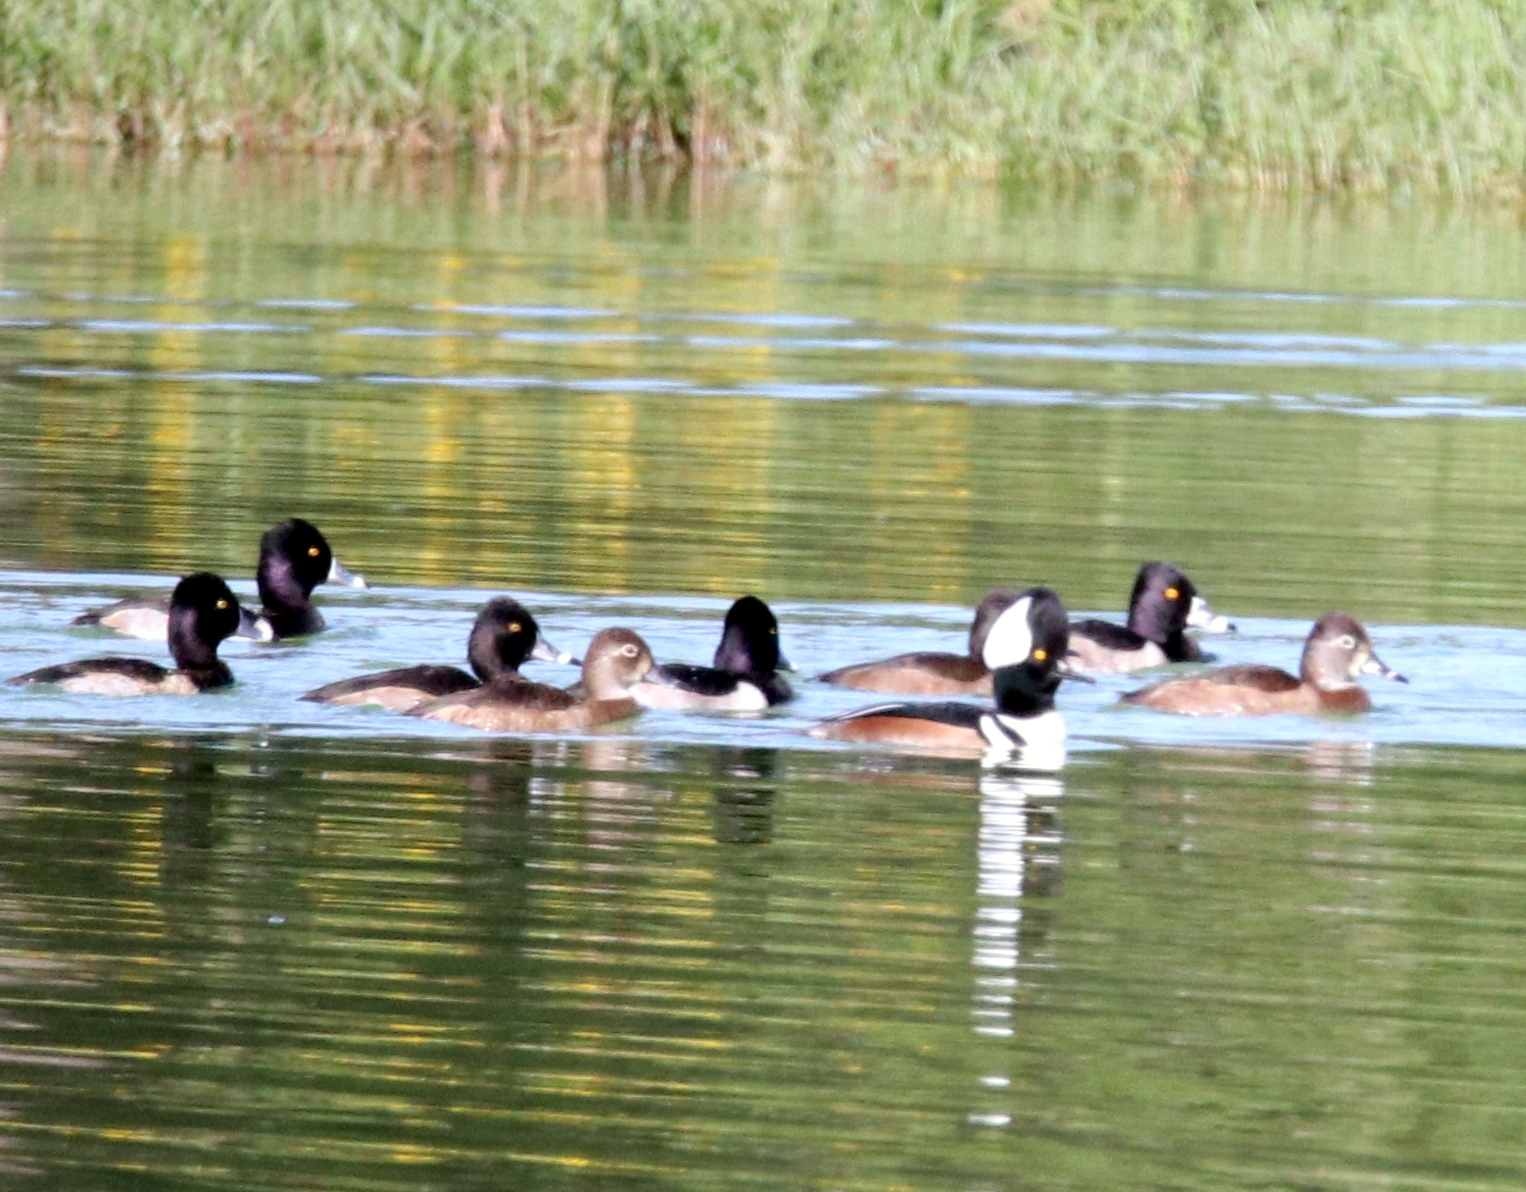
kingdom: Animalia
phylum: Chordata
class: Aves
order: Anseriformes
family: Anatidae
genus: Lophodytes
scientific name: Lophodytes cucullatus
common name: Hooded merganser
